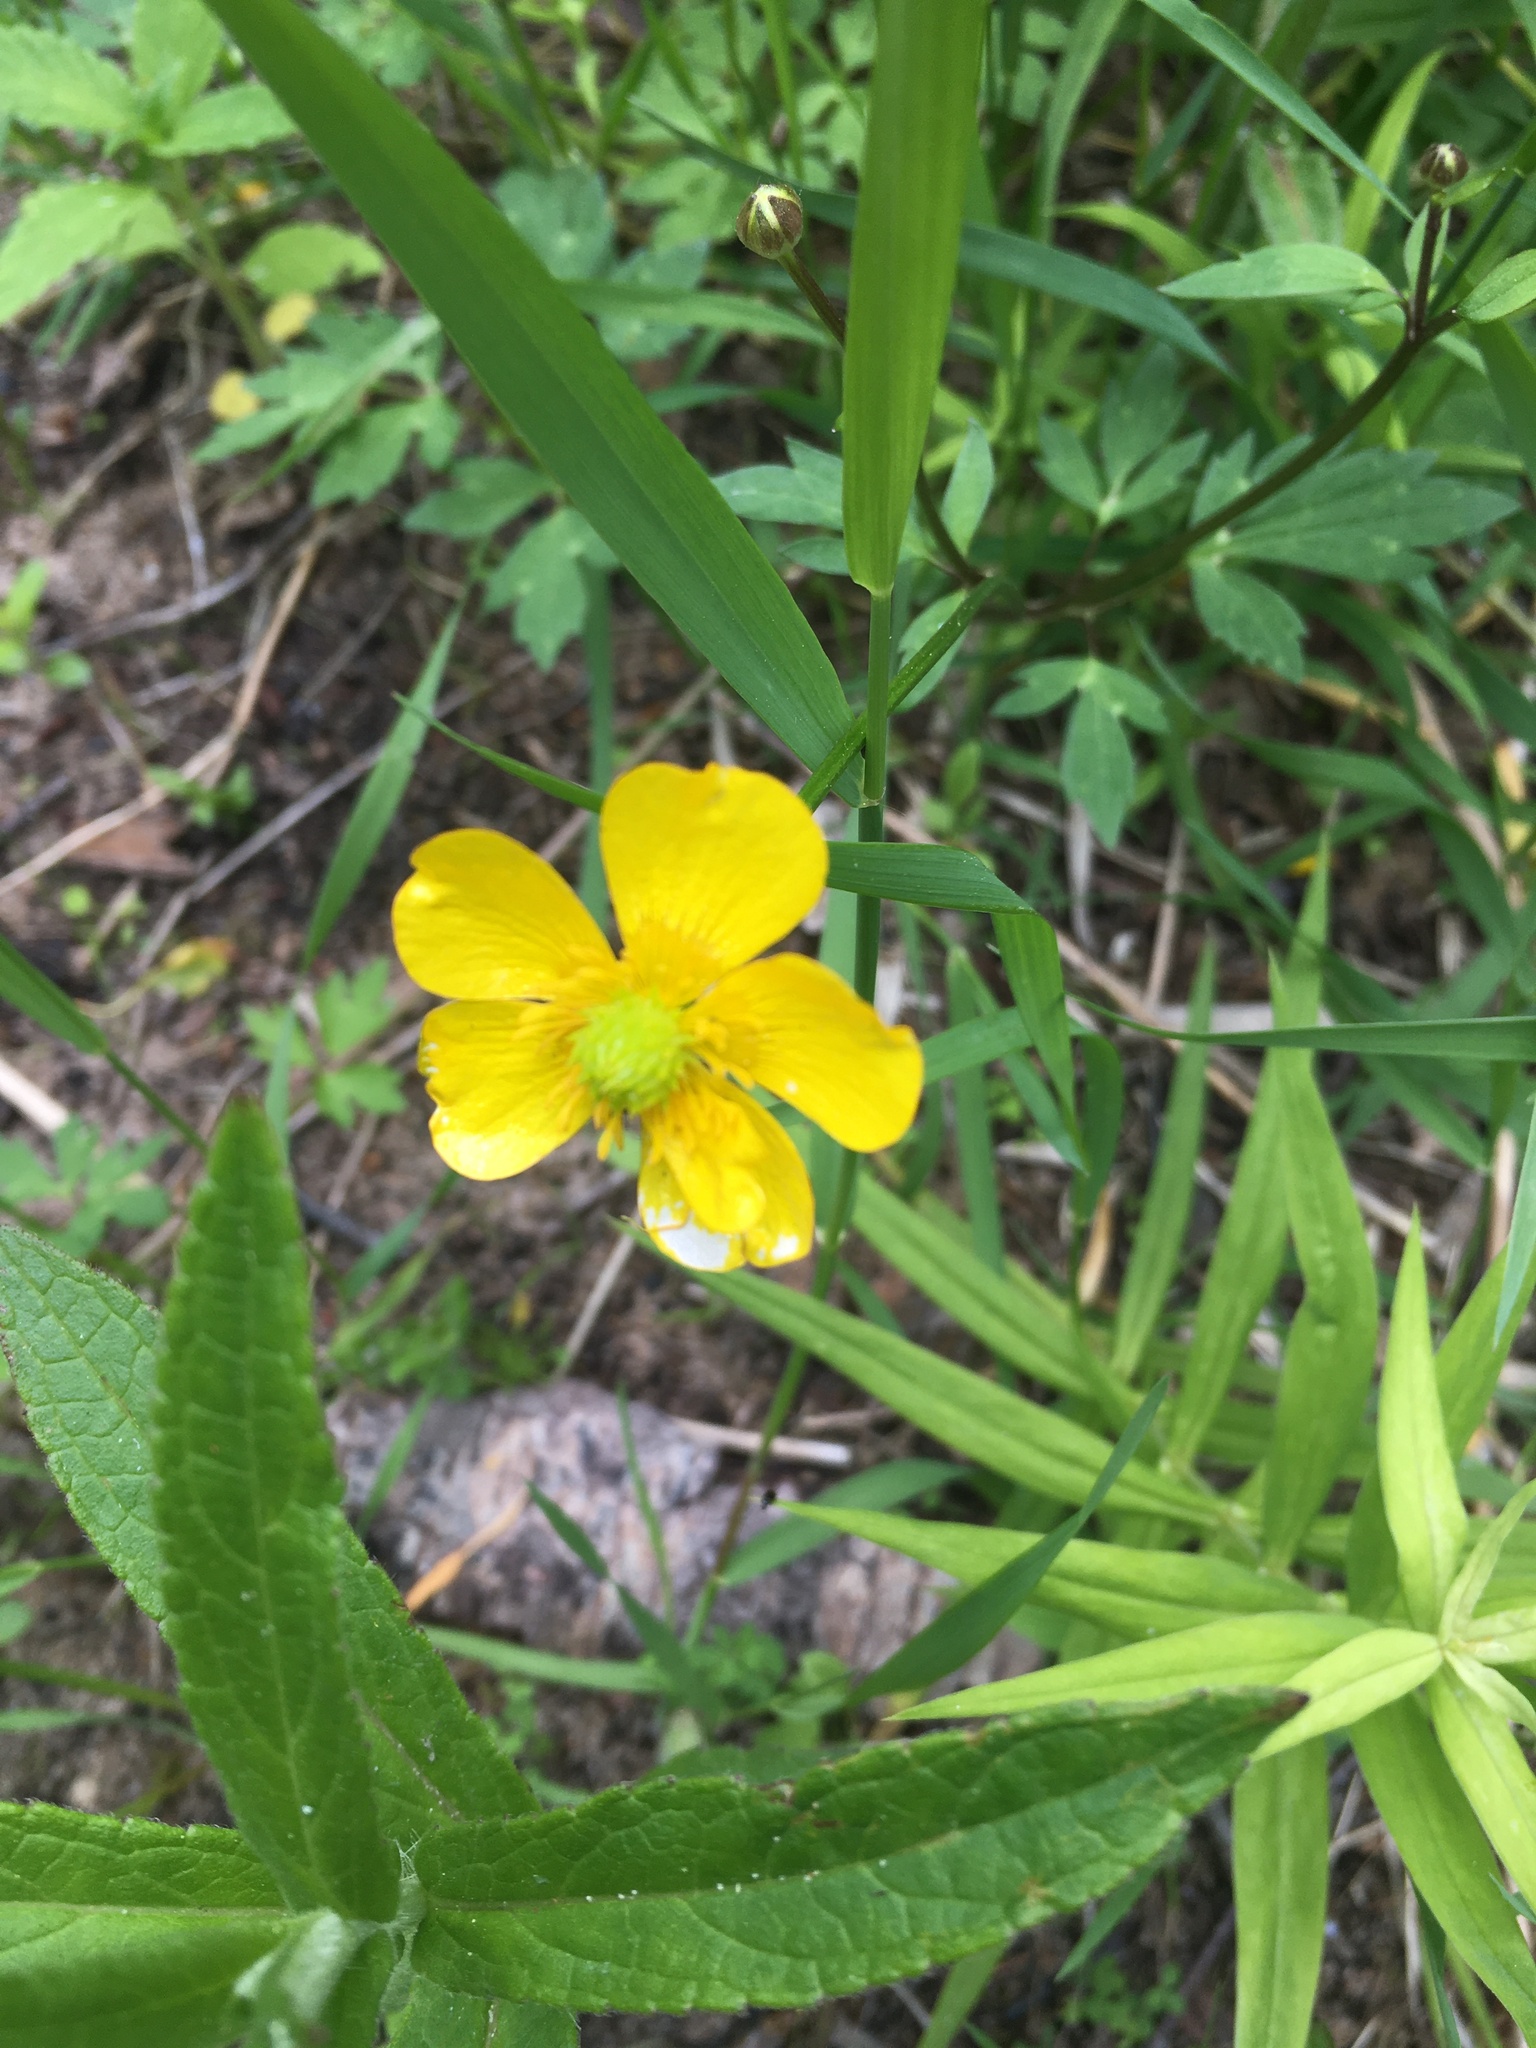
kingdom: Plantae
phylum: Tracheophyta
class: Magnoliopsida
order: Ranunculales
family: Ranunculaceae
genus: Ranunculus
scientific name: Ranunculus repens
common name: Creeping buttercup
